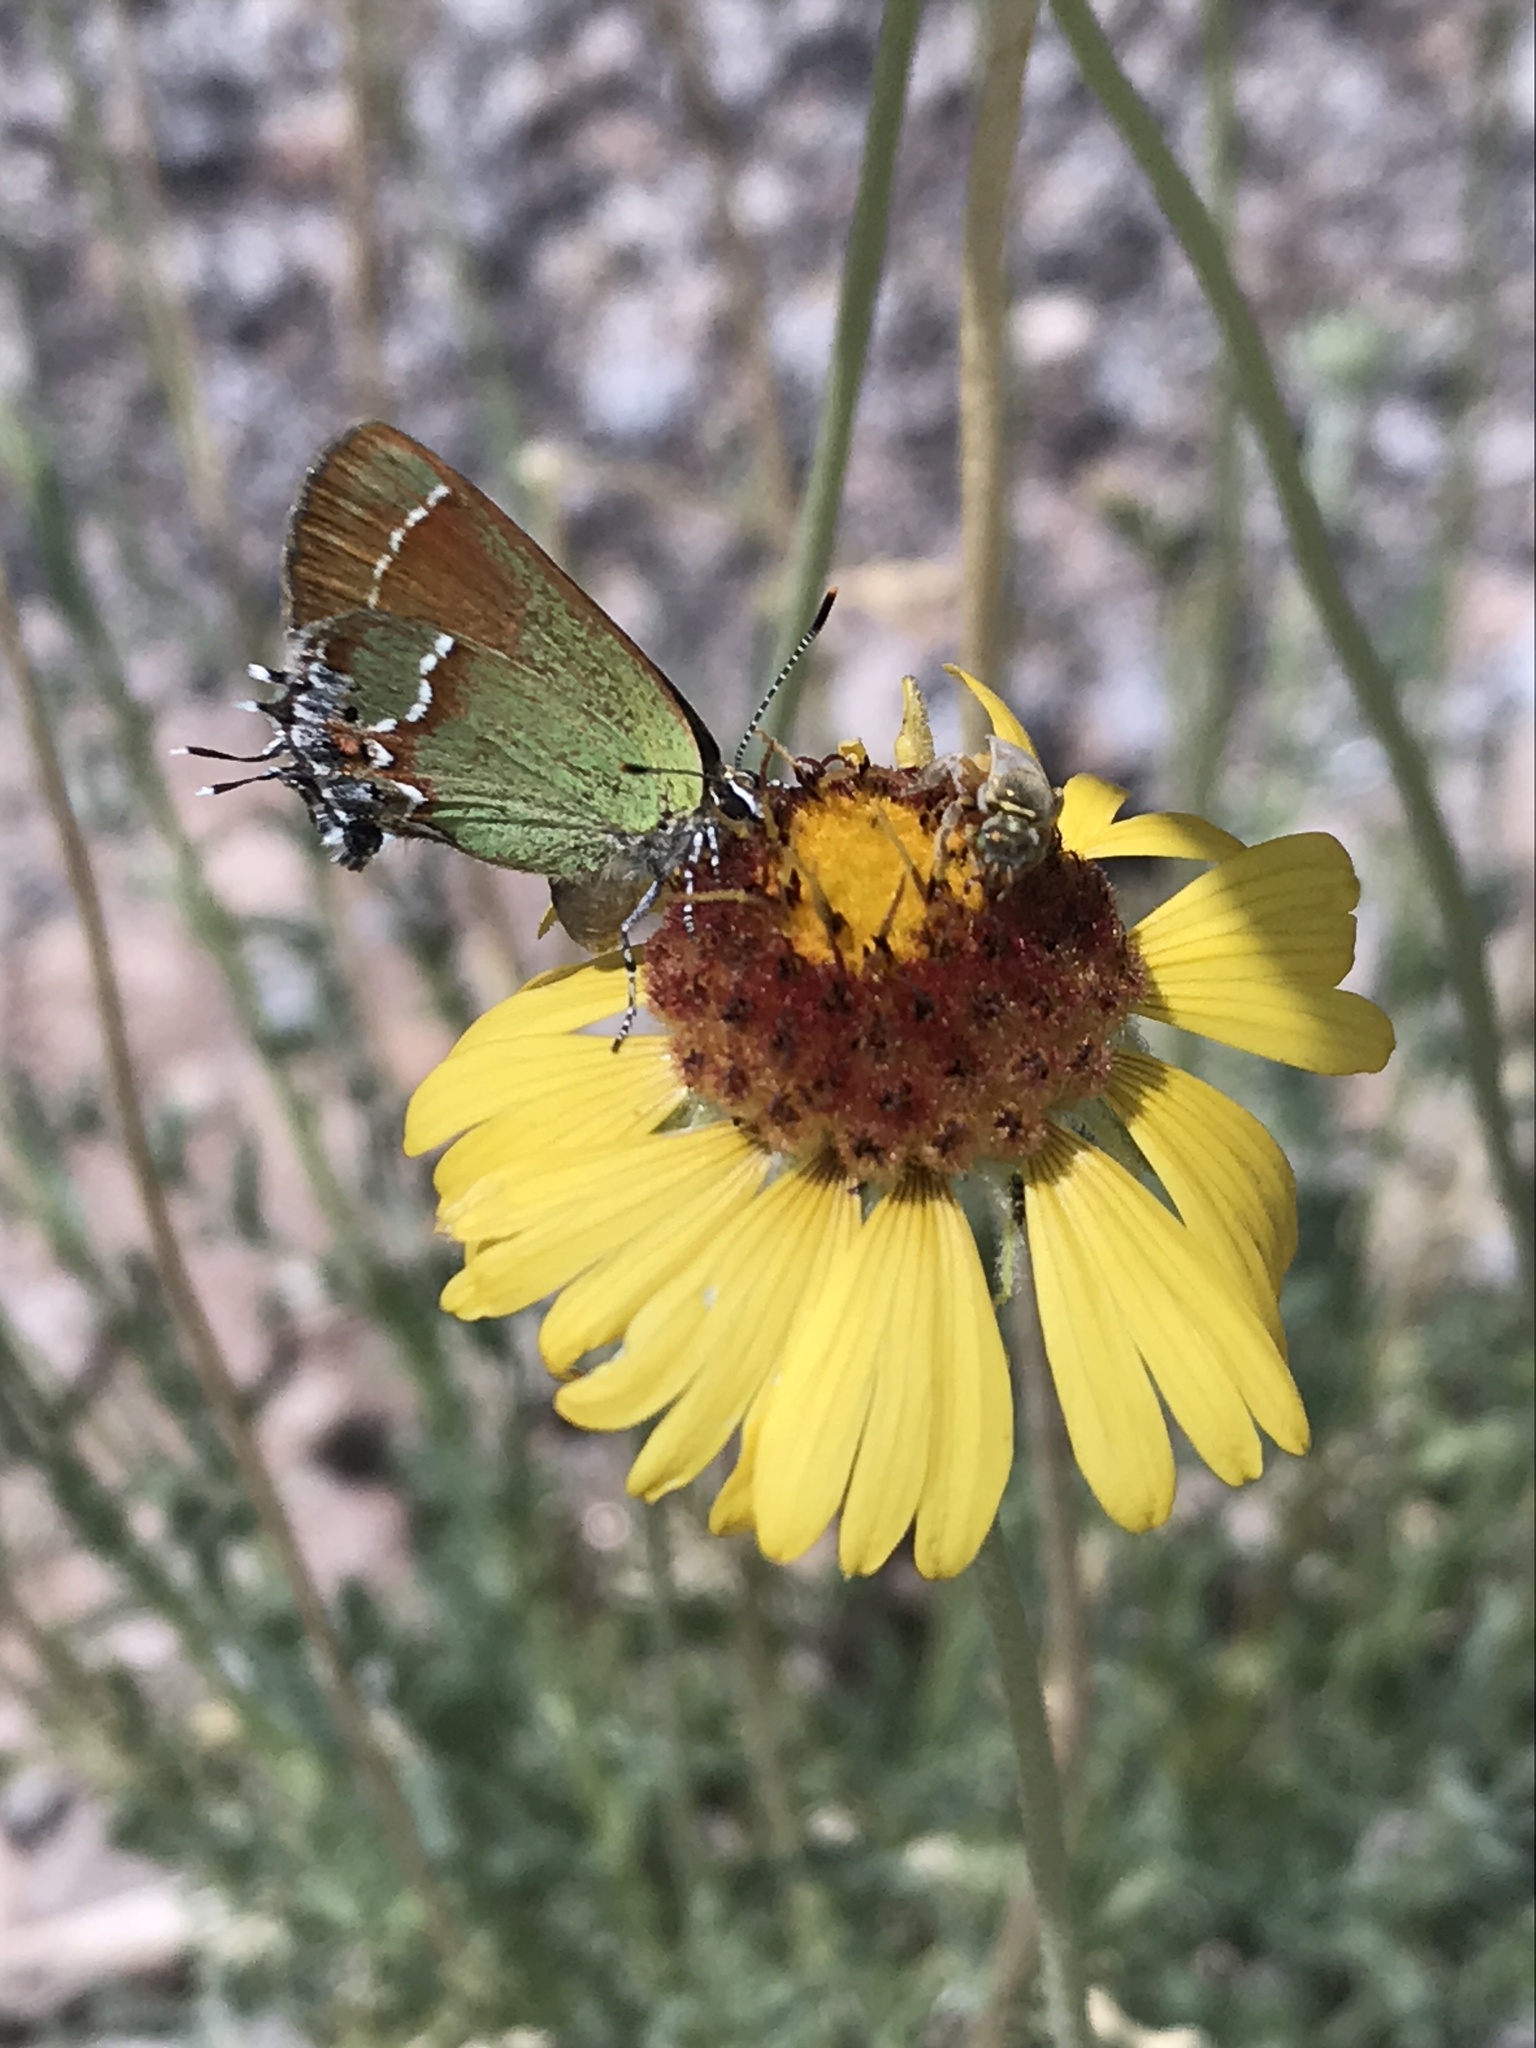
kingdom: Animalia
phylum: Arthropoda
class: Insecta
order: Lepidoptera
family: Lycaenidae
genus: Mitoura
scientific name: Mitoura siva
